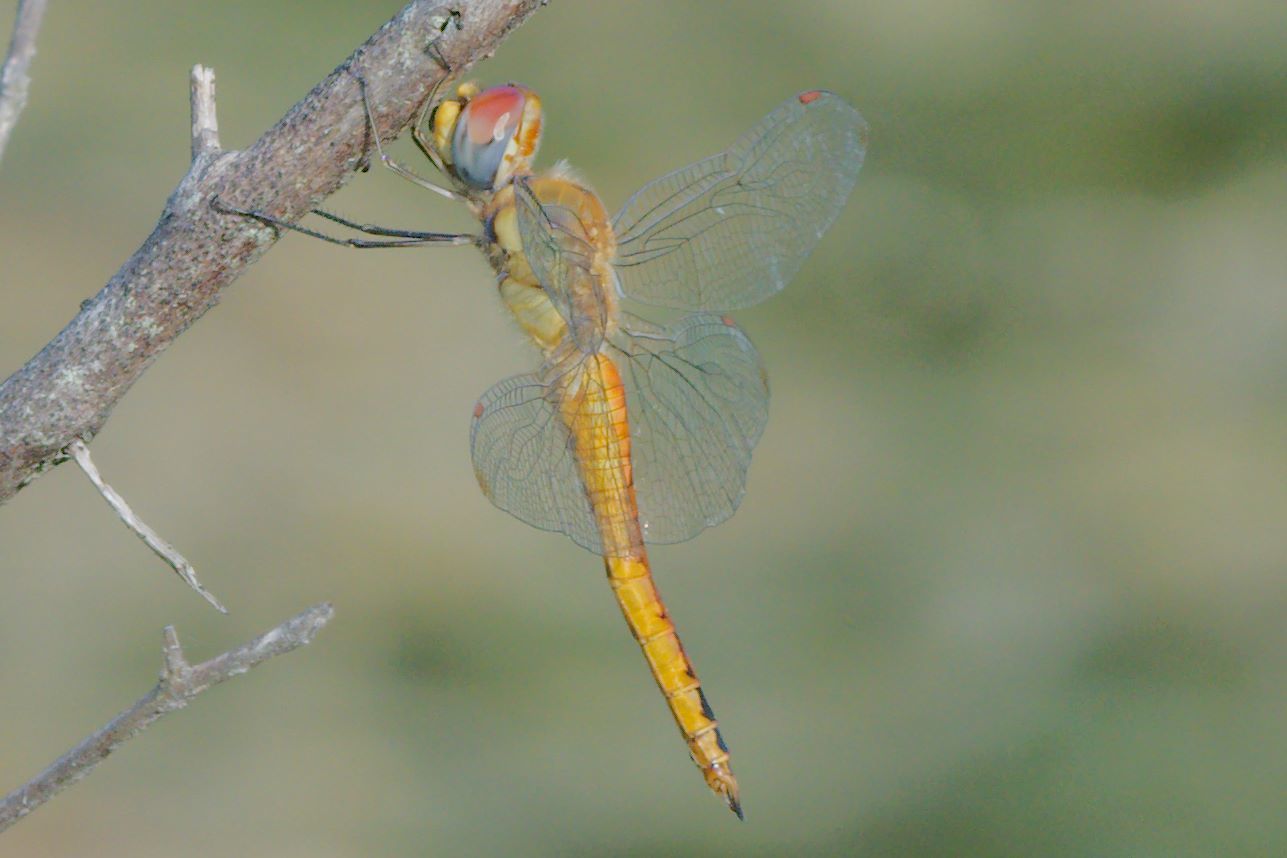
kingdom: Animalia
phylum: Arthropoda
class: Insecta
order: Odonata
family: Libellulidae
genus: Pantala
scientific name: Pantala flavescens
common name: Wandering glider
